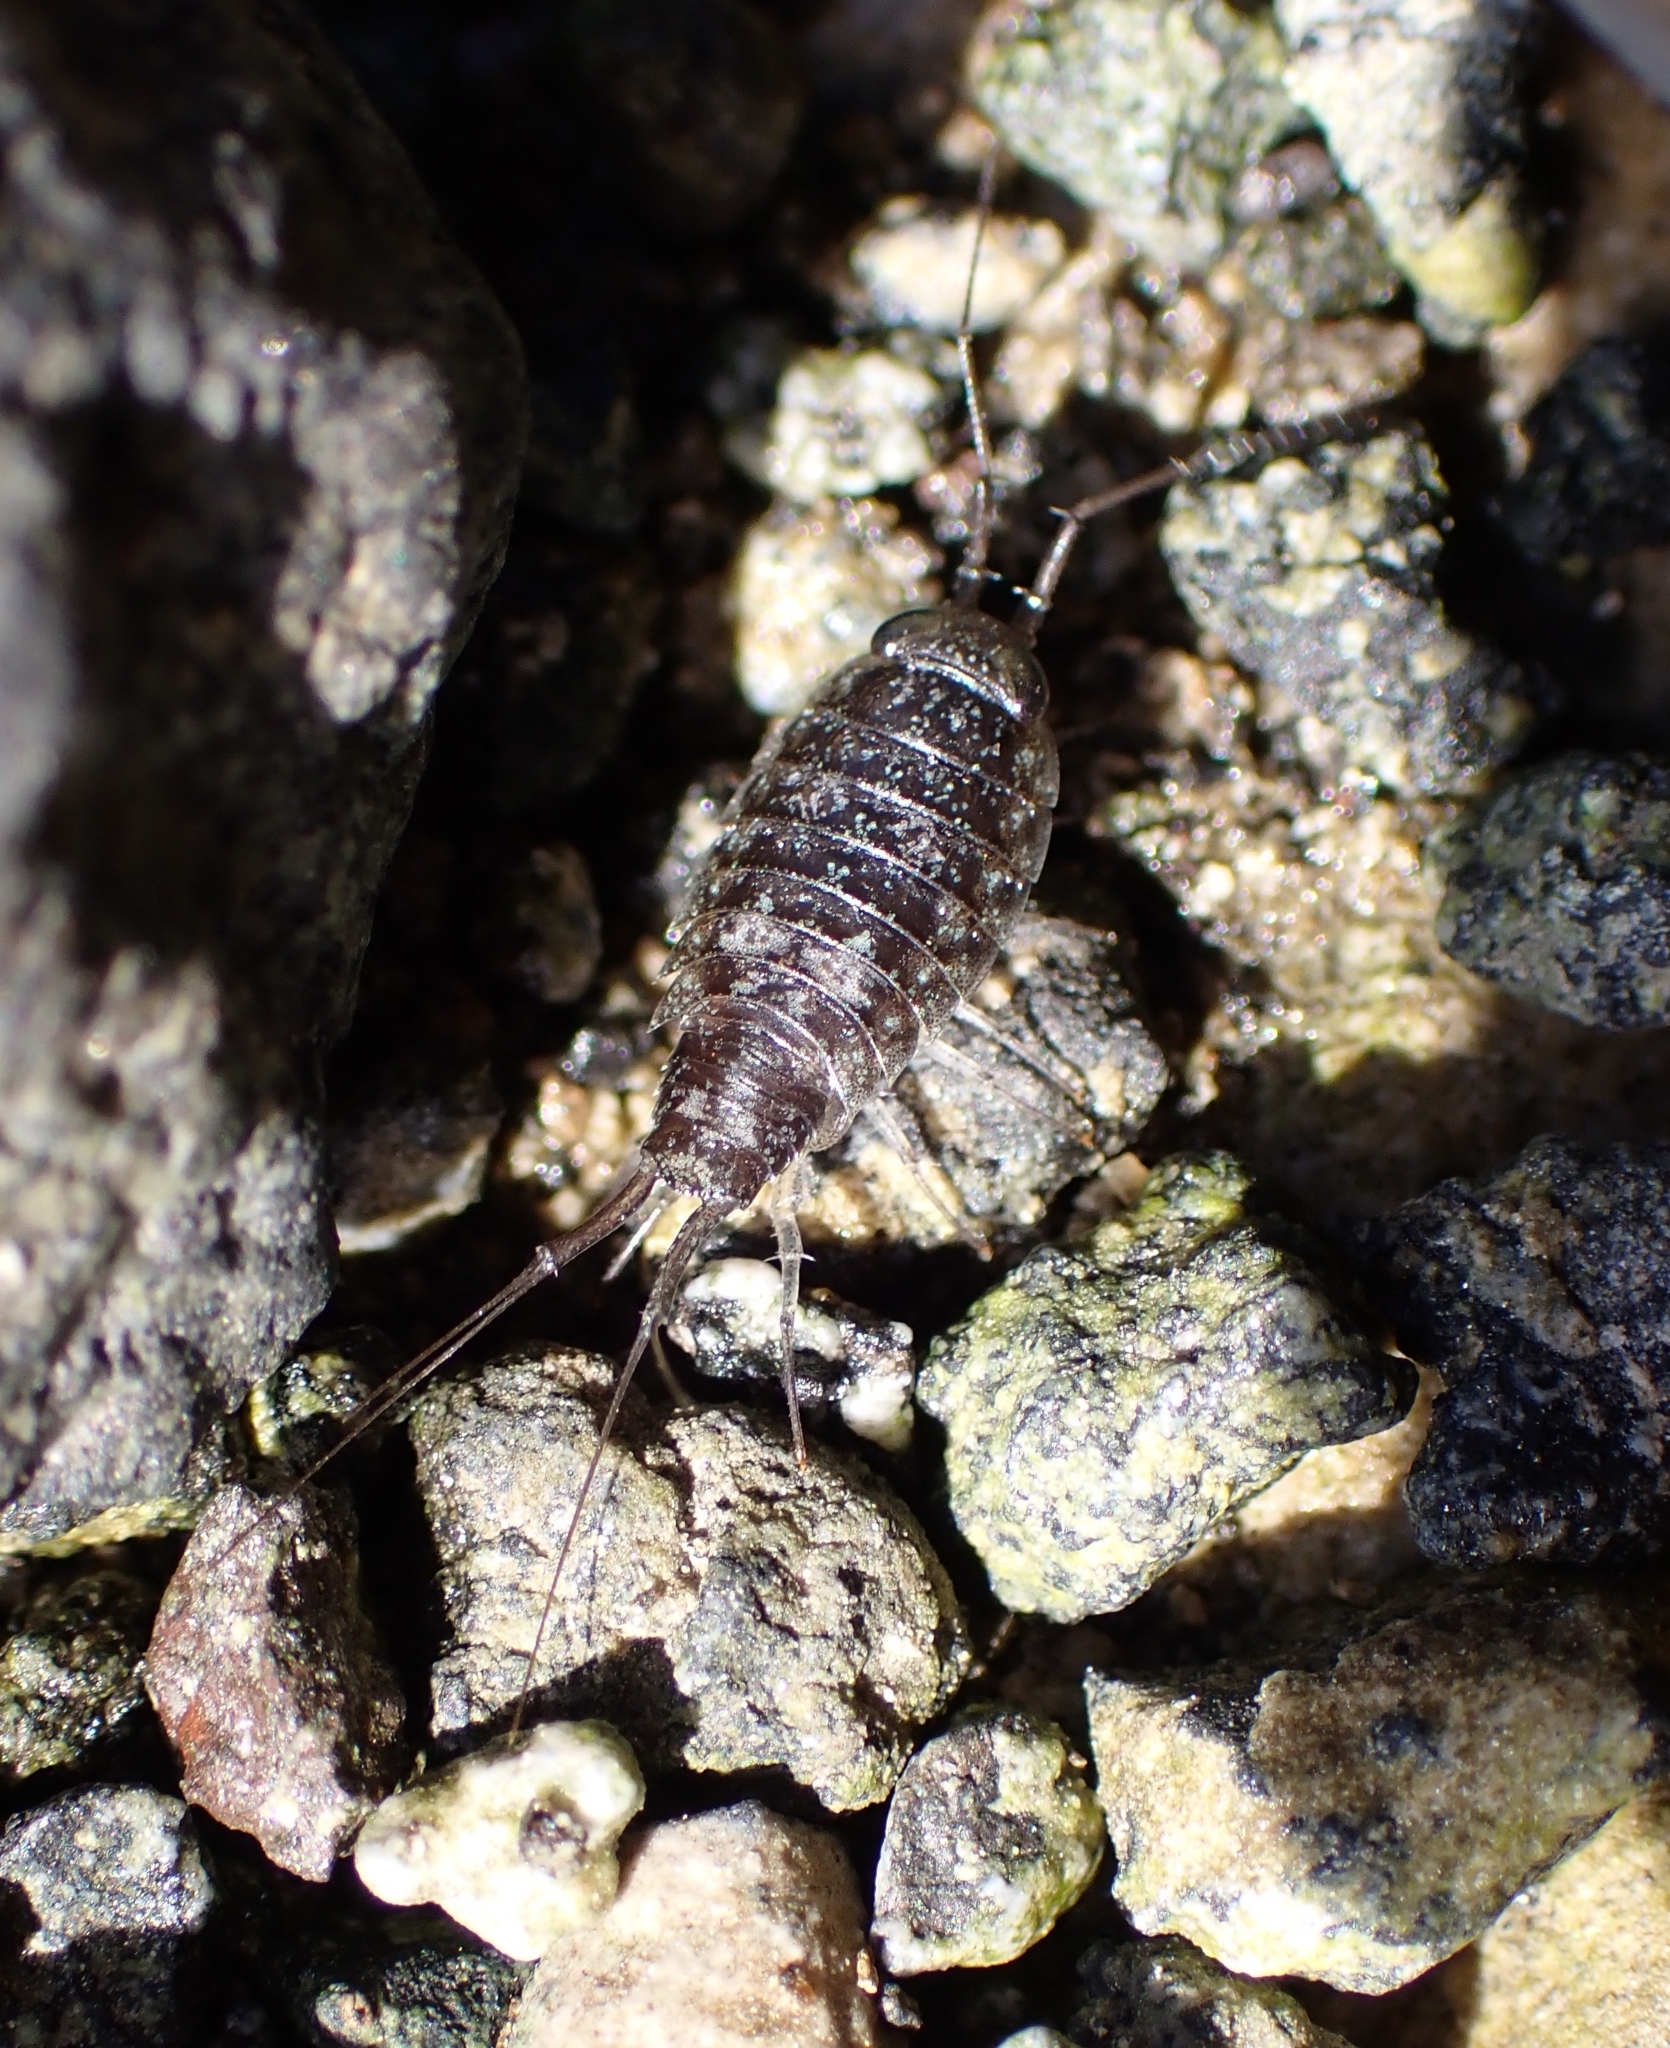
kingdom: Animalia
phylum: Arthropoda
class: Malacostraca
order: Isopoda
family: Ligiidae
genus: Ligia
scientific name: Ligia italica
